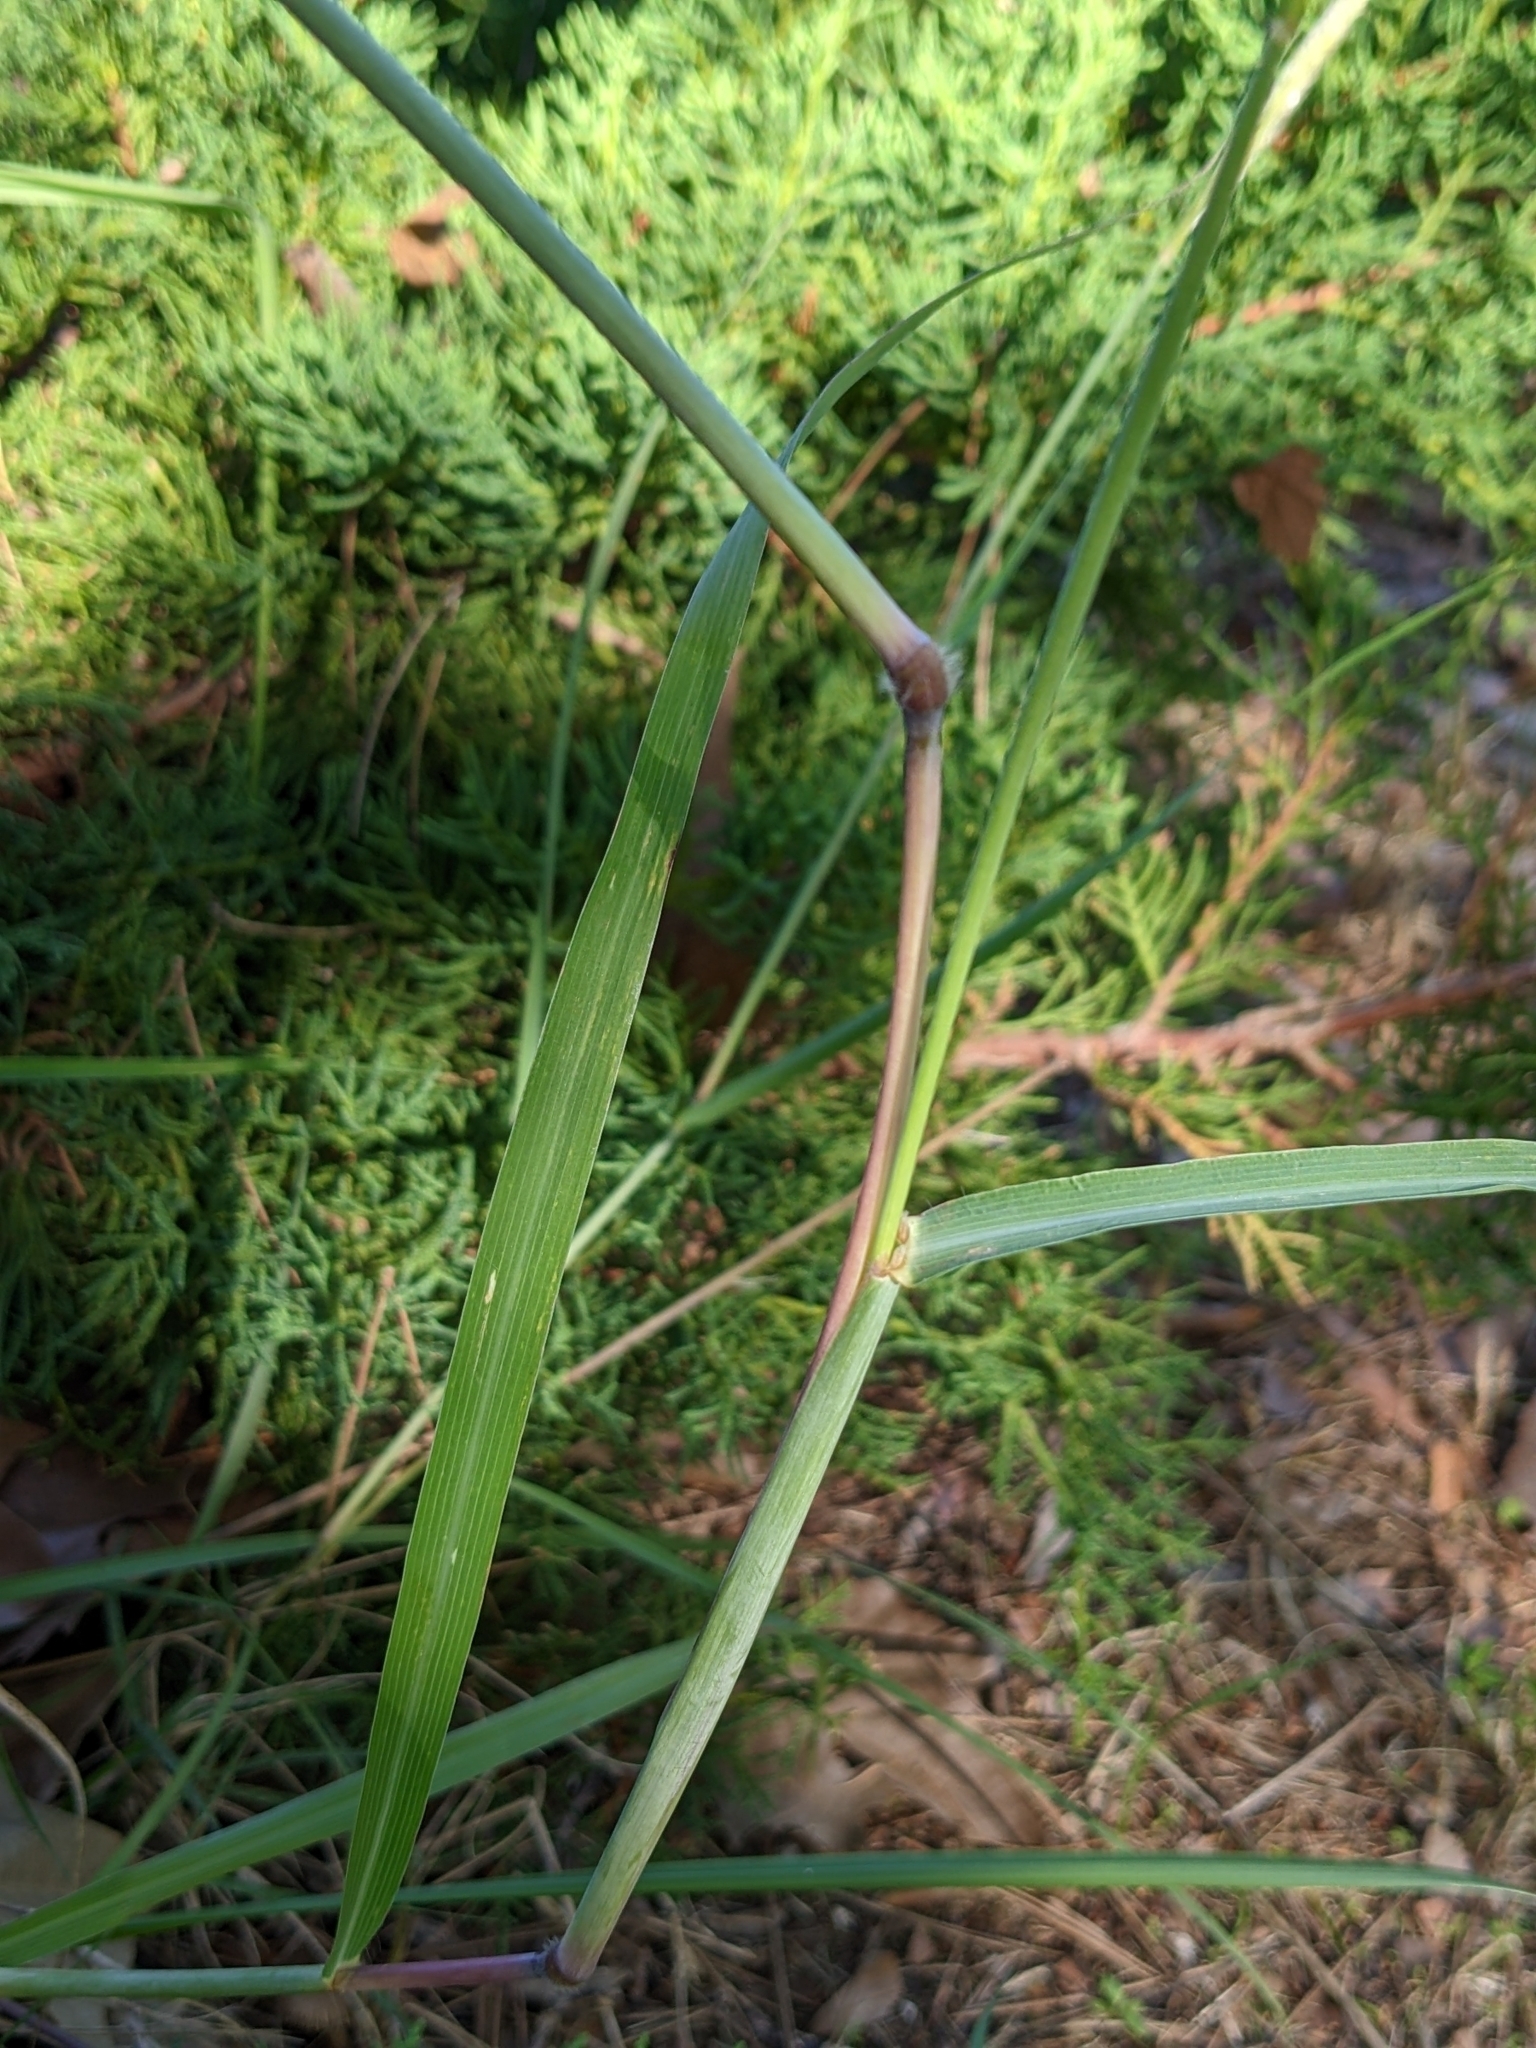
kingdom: Plantae
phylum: Tracheophyta
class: Liliopsida
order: Poales
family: Poaceae
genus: Bothriochloa
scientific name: Bothriochloa barbinodis
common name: Cane bluestem
